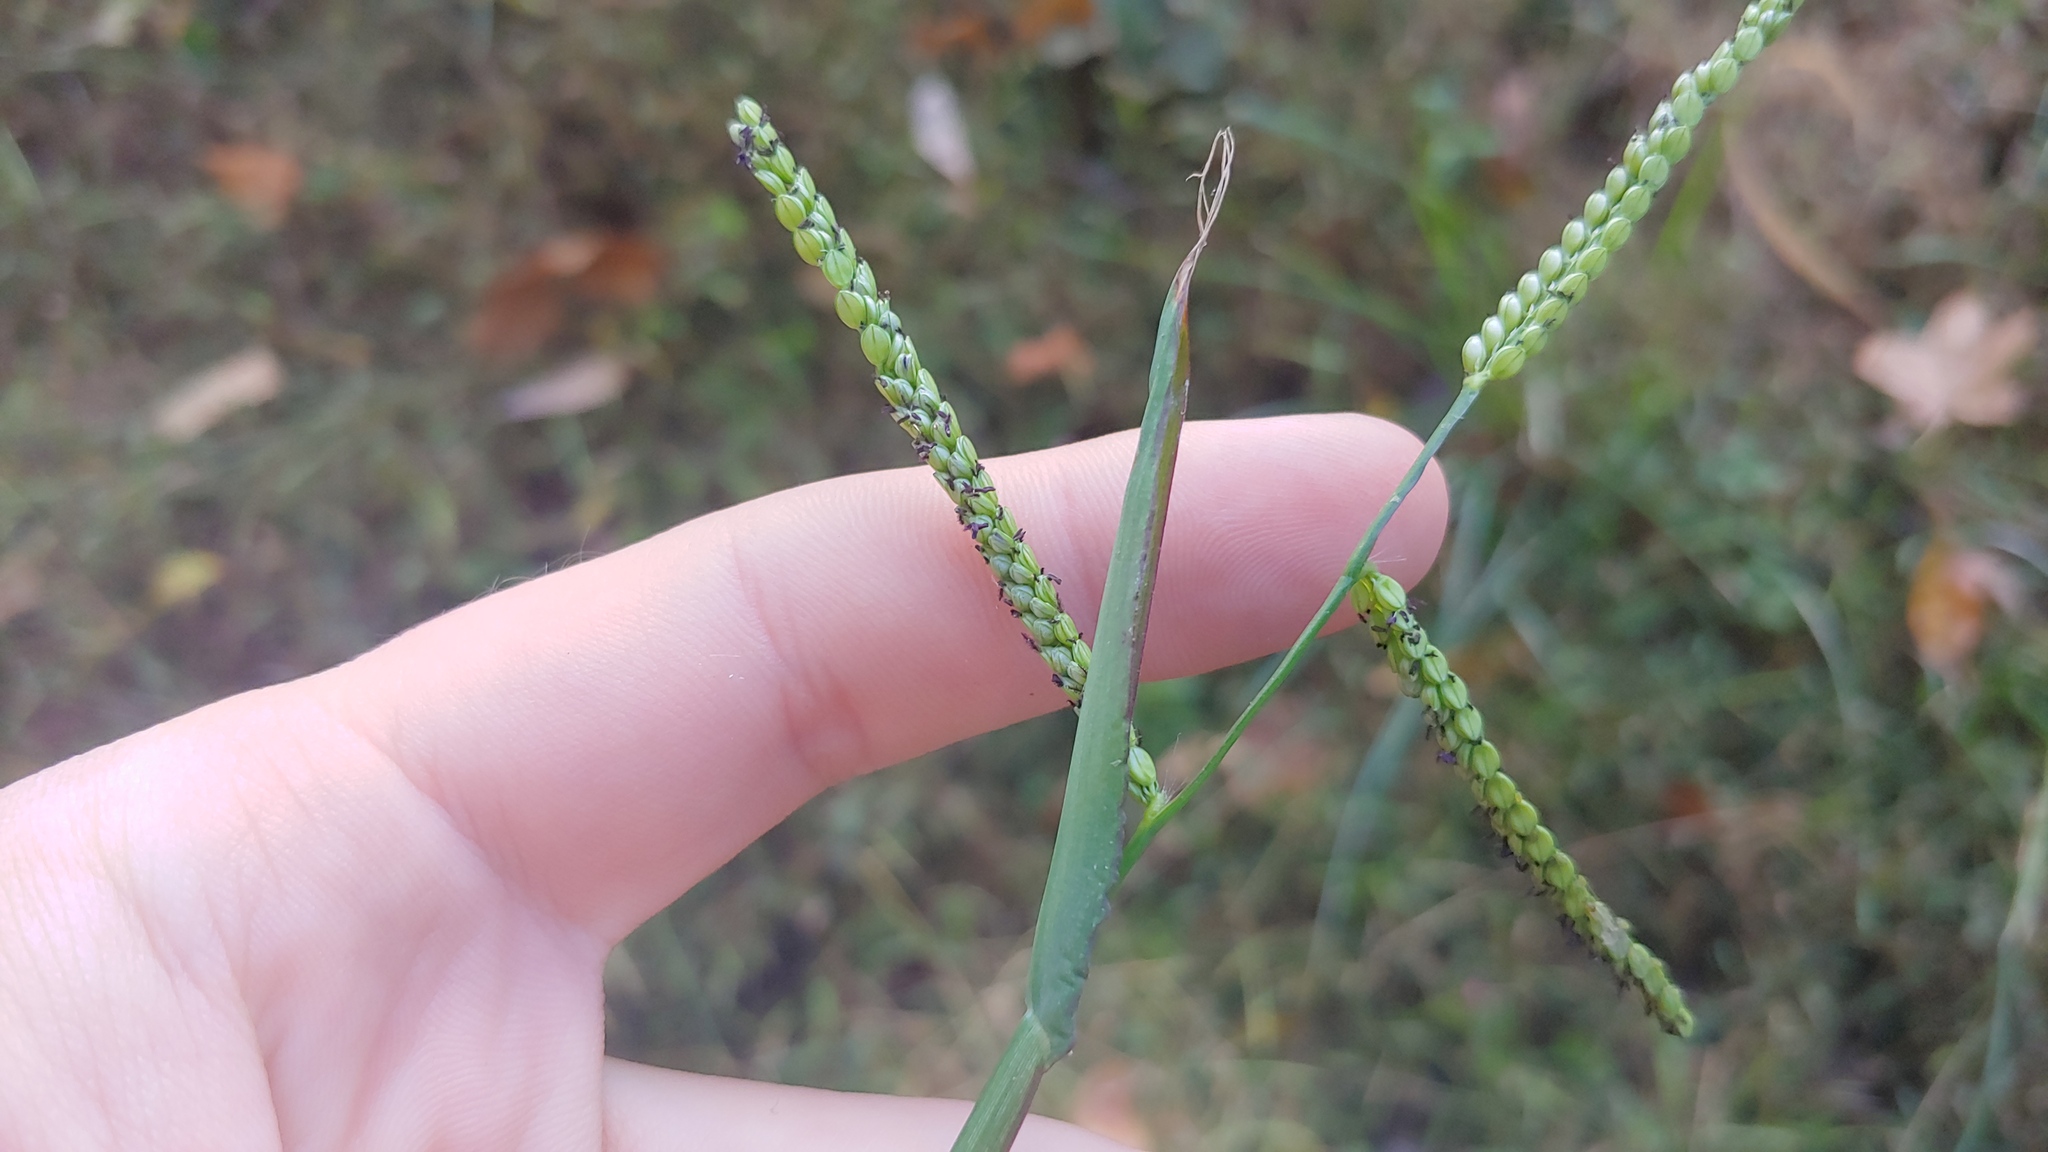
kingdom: Plantae
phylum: Tracheophyta
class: Liliopsida
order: Poales
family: Poaceae
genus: Paspalum
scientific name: Paspalum pubiflorum
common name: Hairy-seed paspalum
